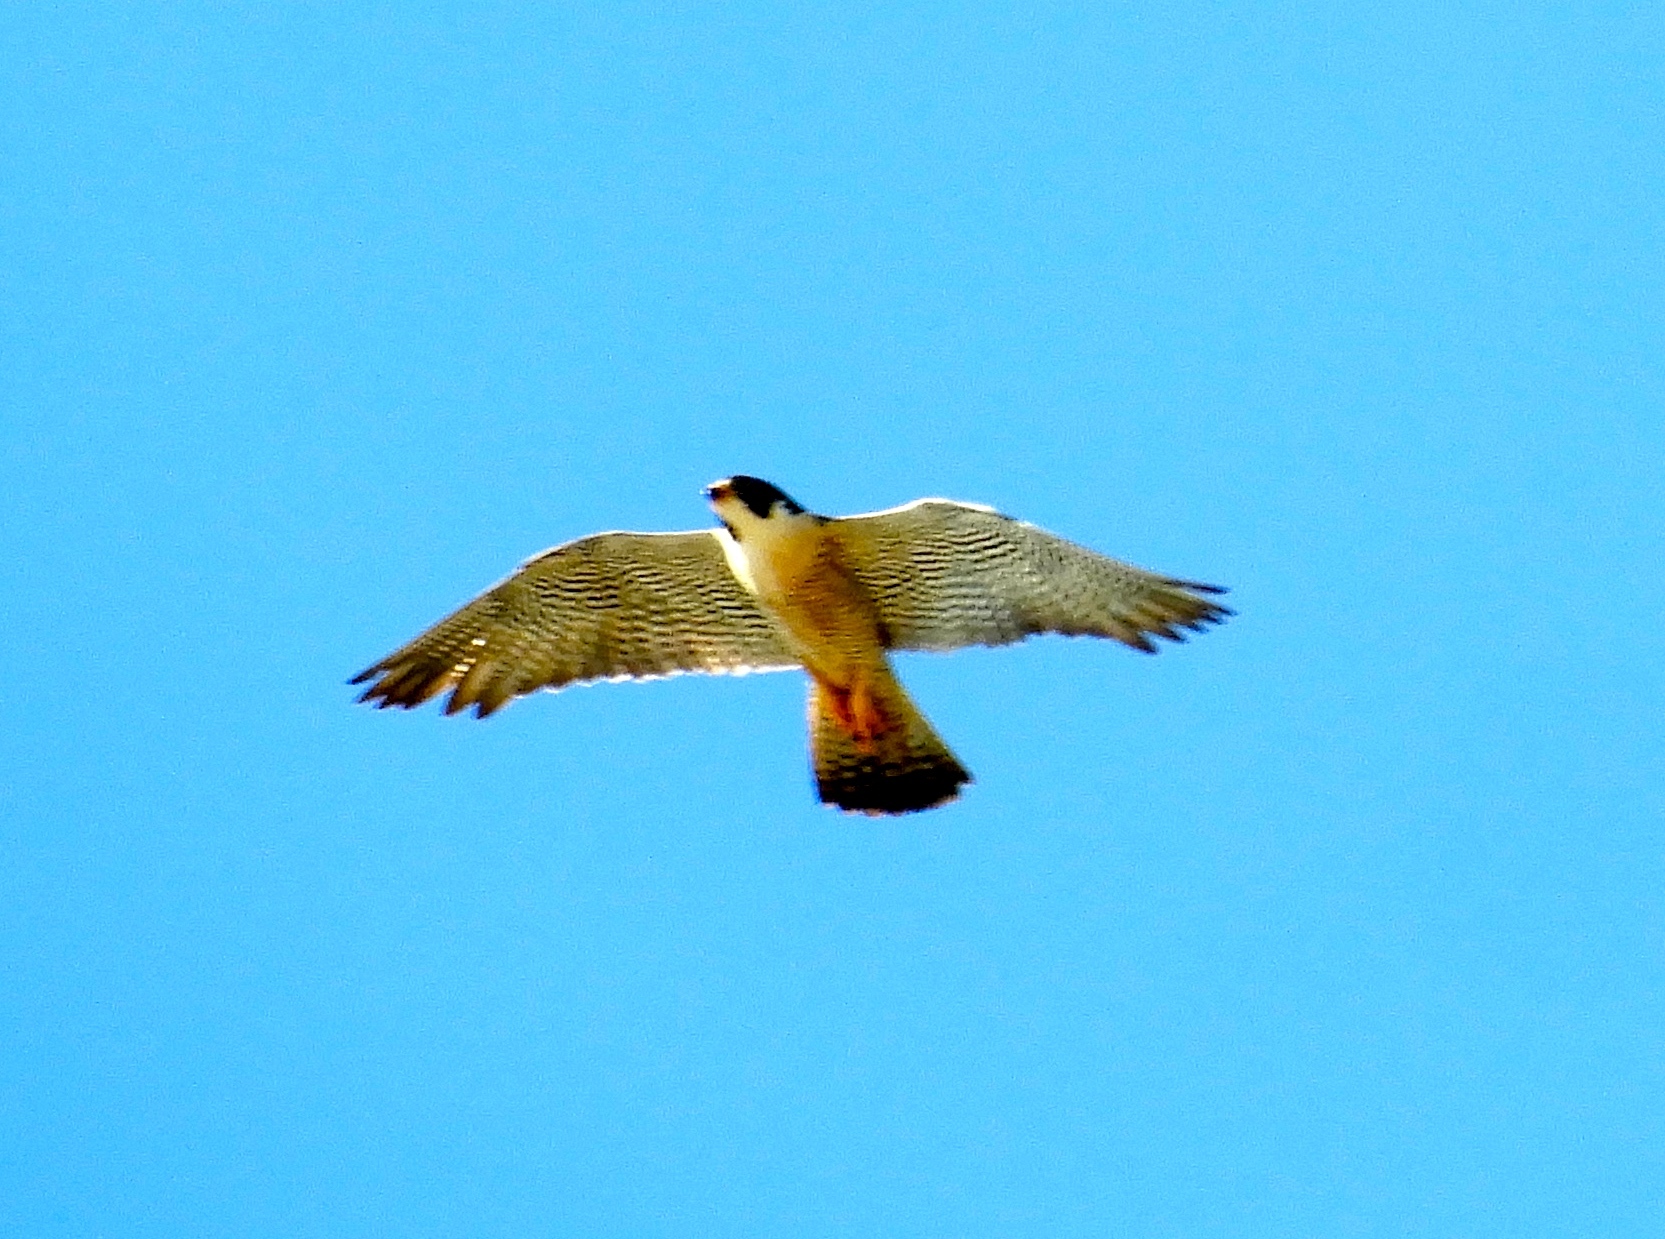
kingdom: Animalia
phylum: Chordata
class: Aves
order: Falconiformes
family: Falconidae
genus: Falco
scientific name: Falco peregrinus
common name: Peregrine falcon
